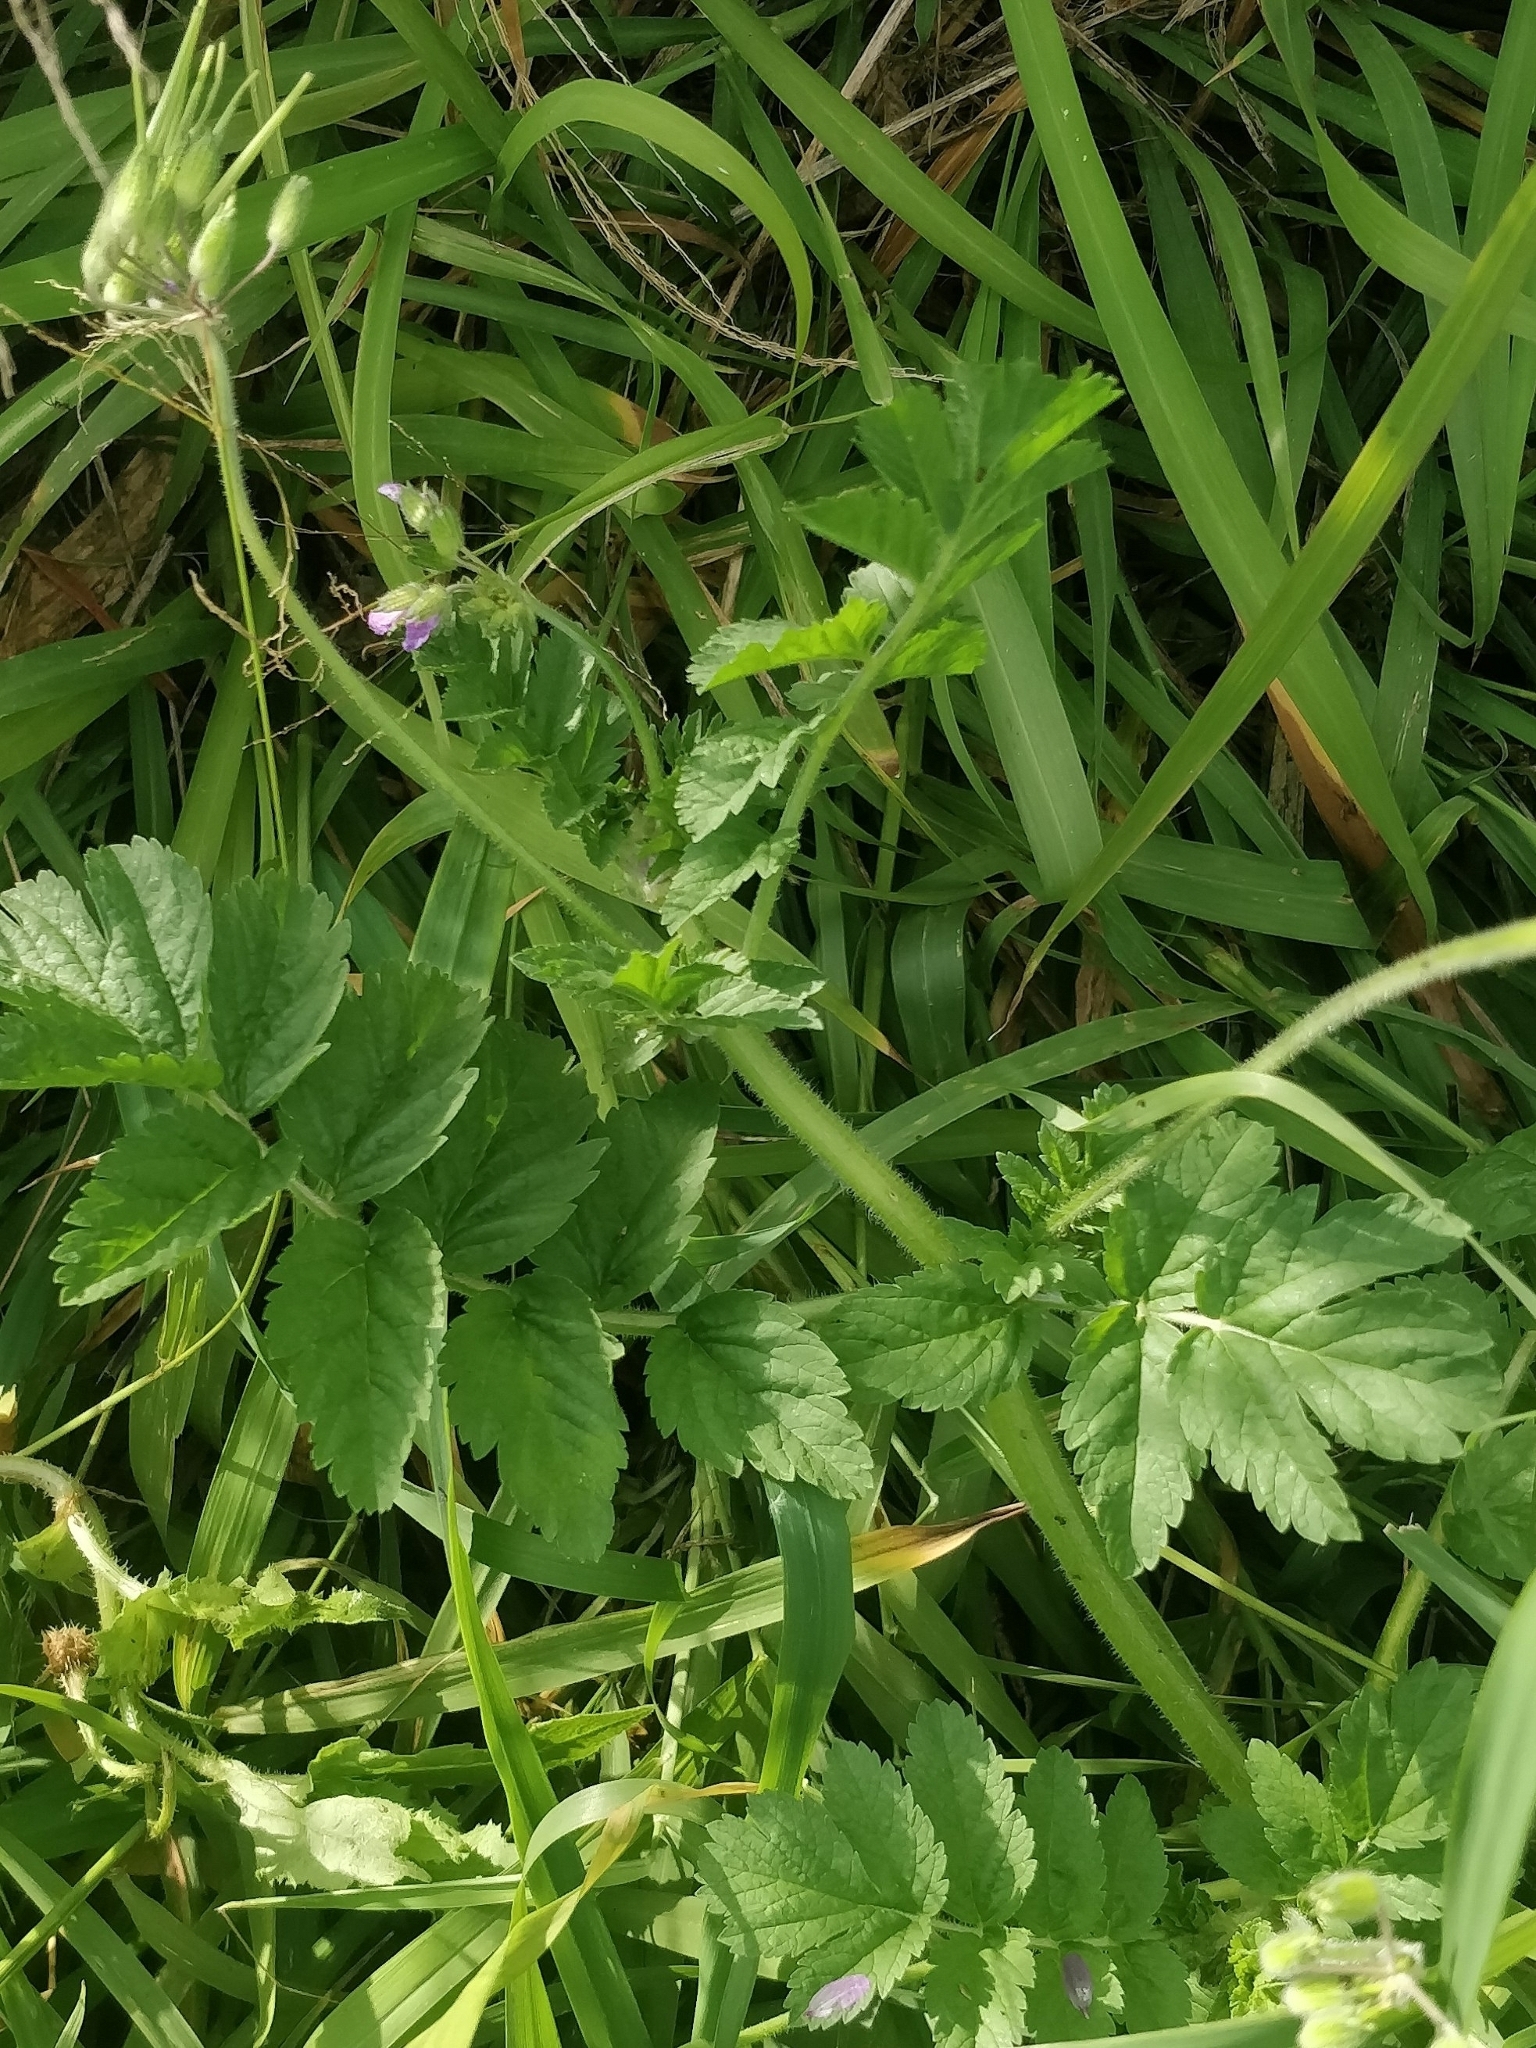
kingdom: Plantae
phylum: Tracheophyta
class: Magnoliopsida
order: Geraniales
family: Geraniaceae
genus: Erodium
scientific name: Erodium moschatum
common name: Musk stork's-bill
